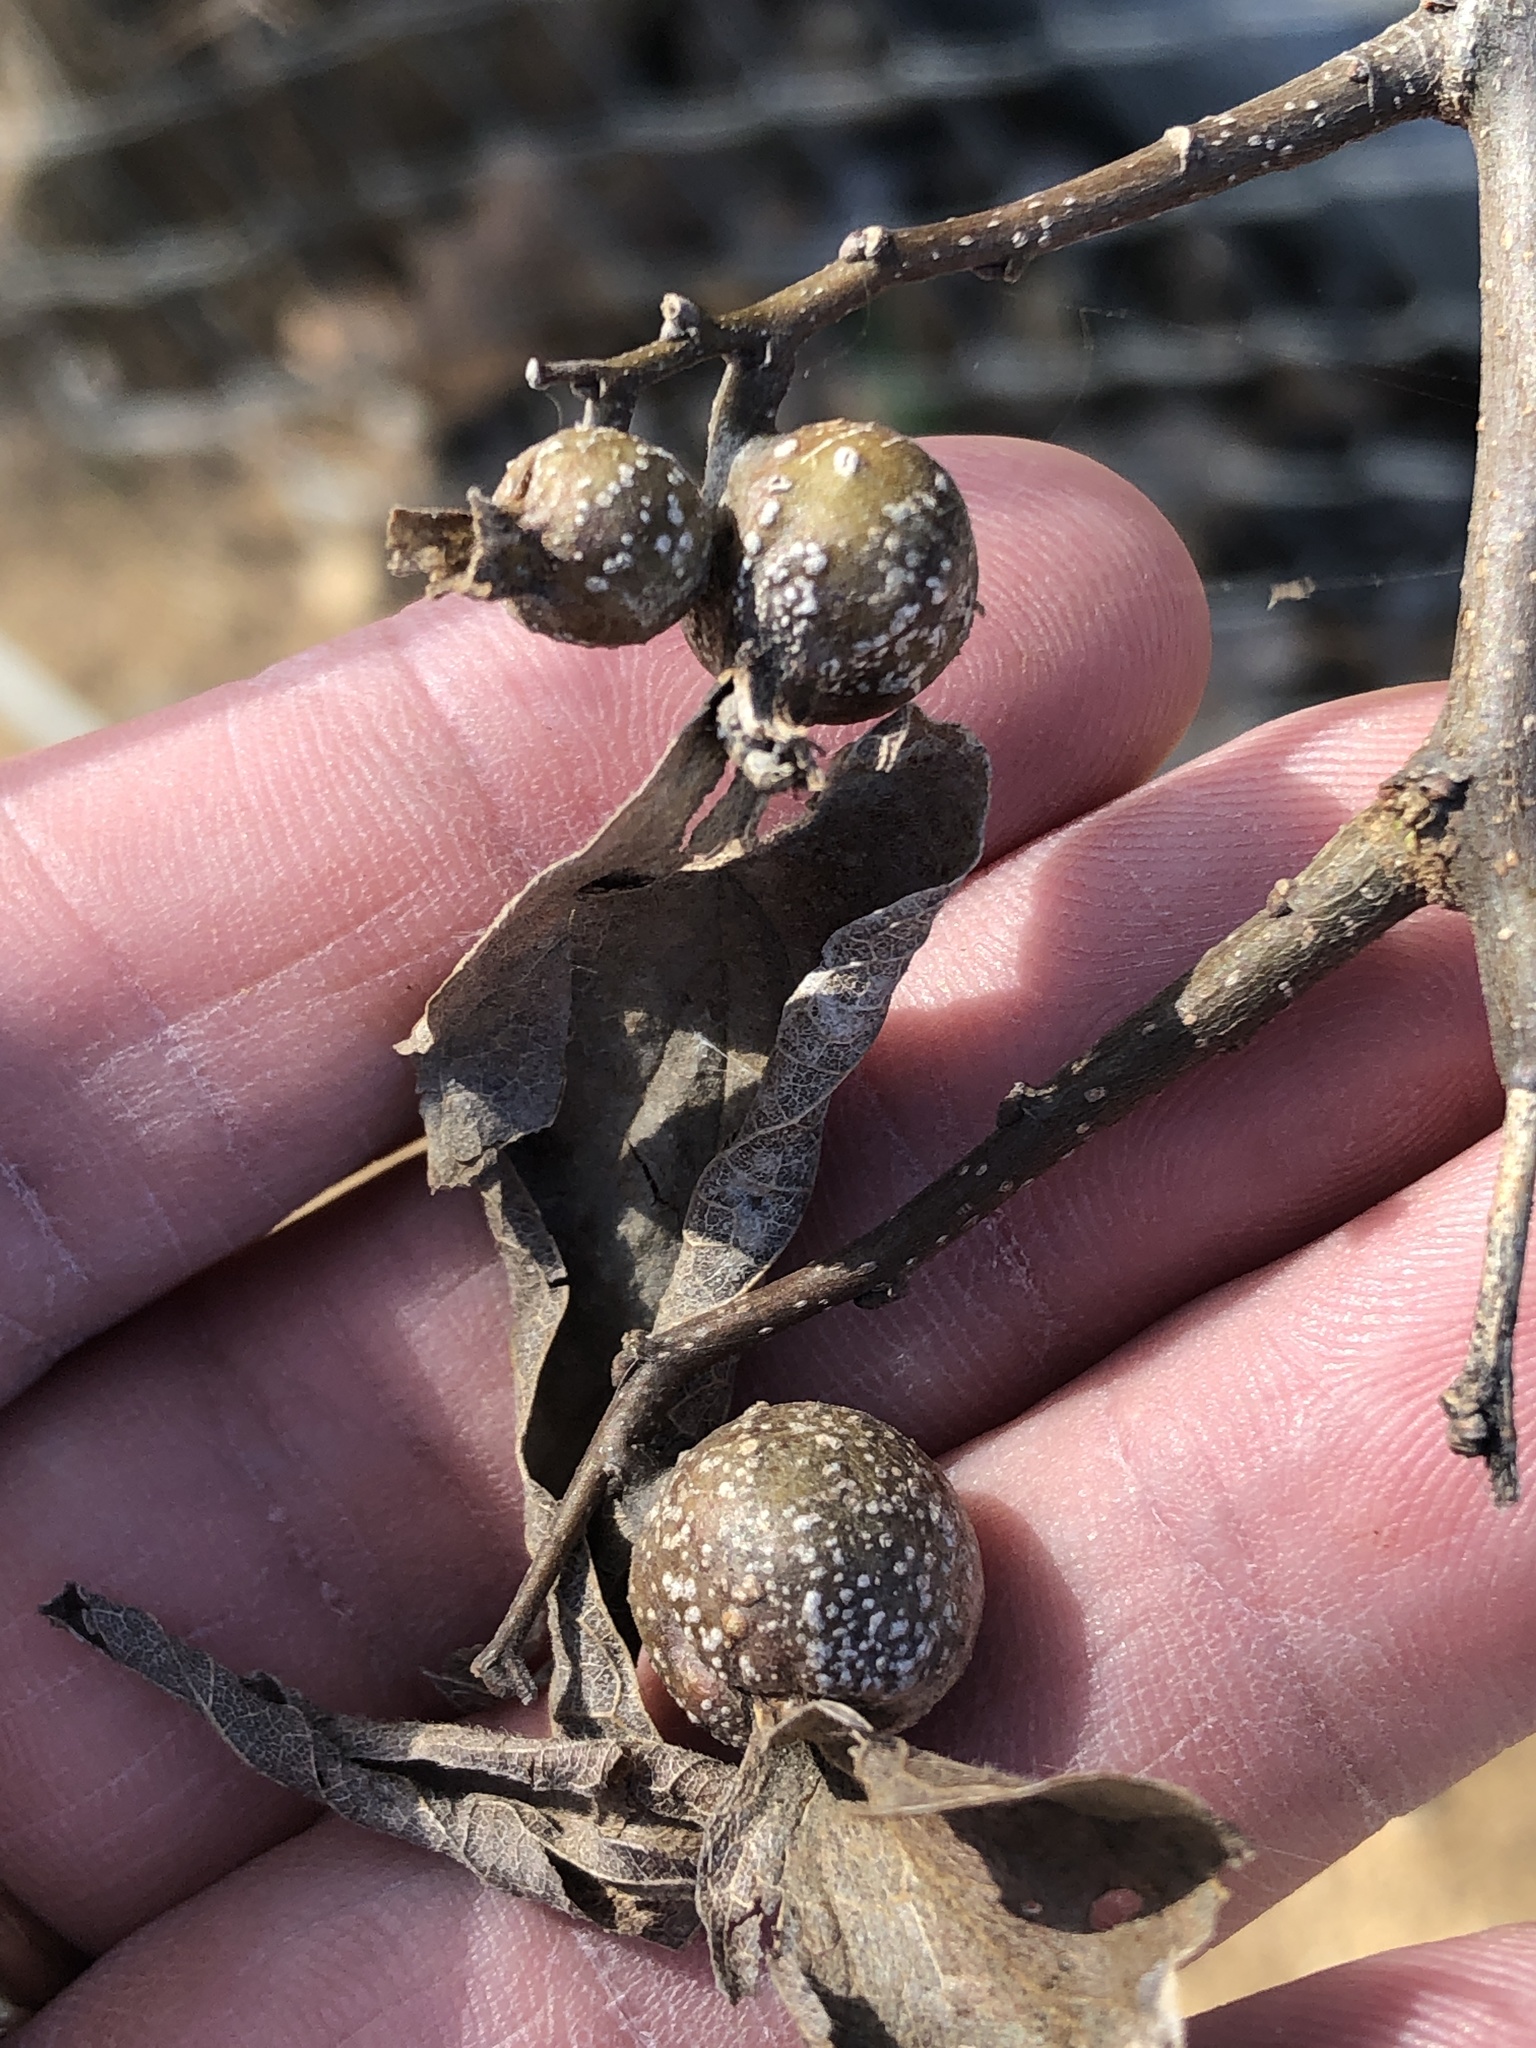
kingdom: Animalia
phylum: Arthropoda
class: Insecta
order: Hemiptera
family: Aphalaridae
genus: Pachypsylla
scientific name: Pachypsylla venusta
